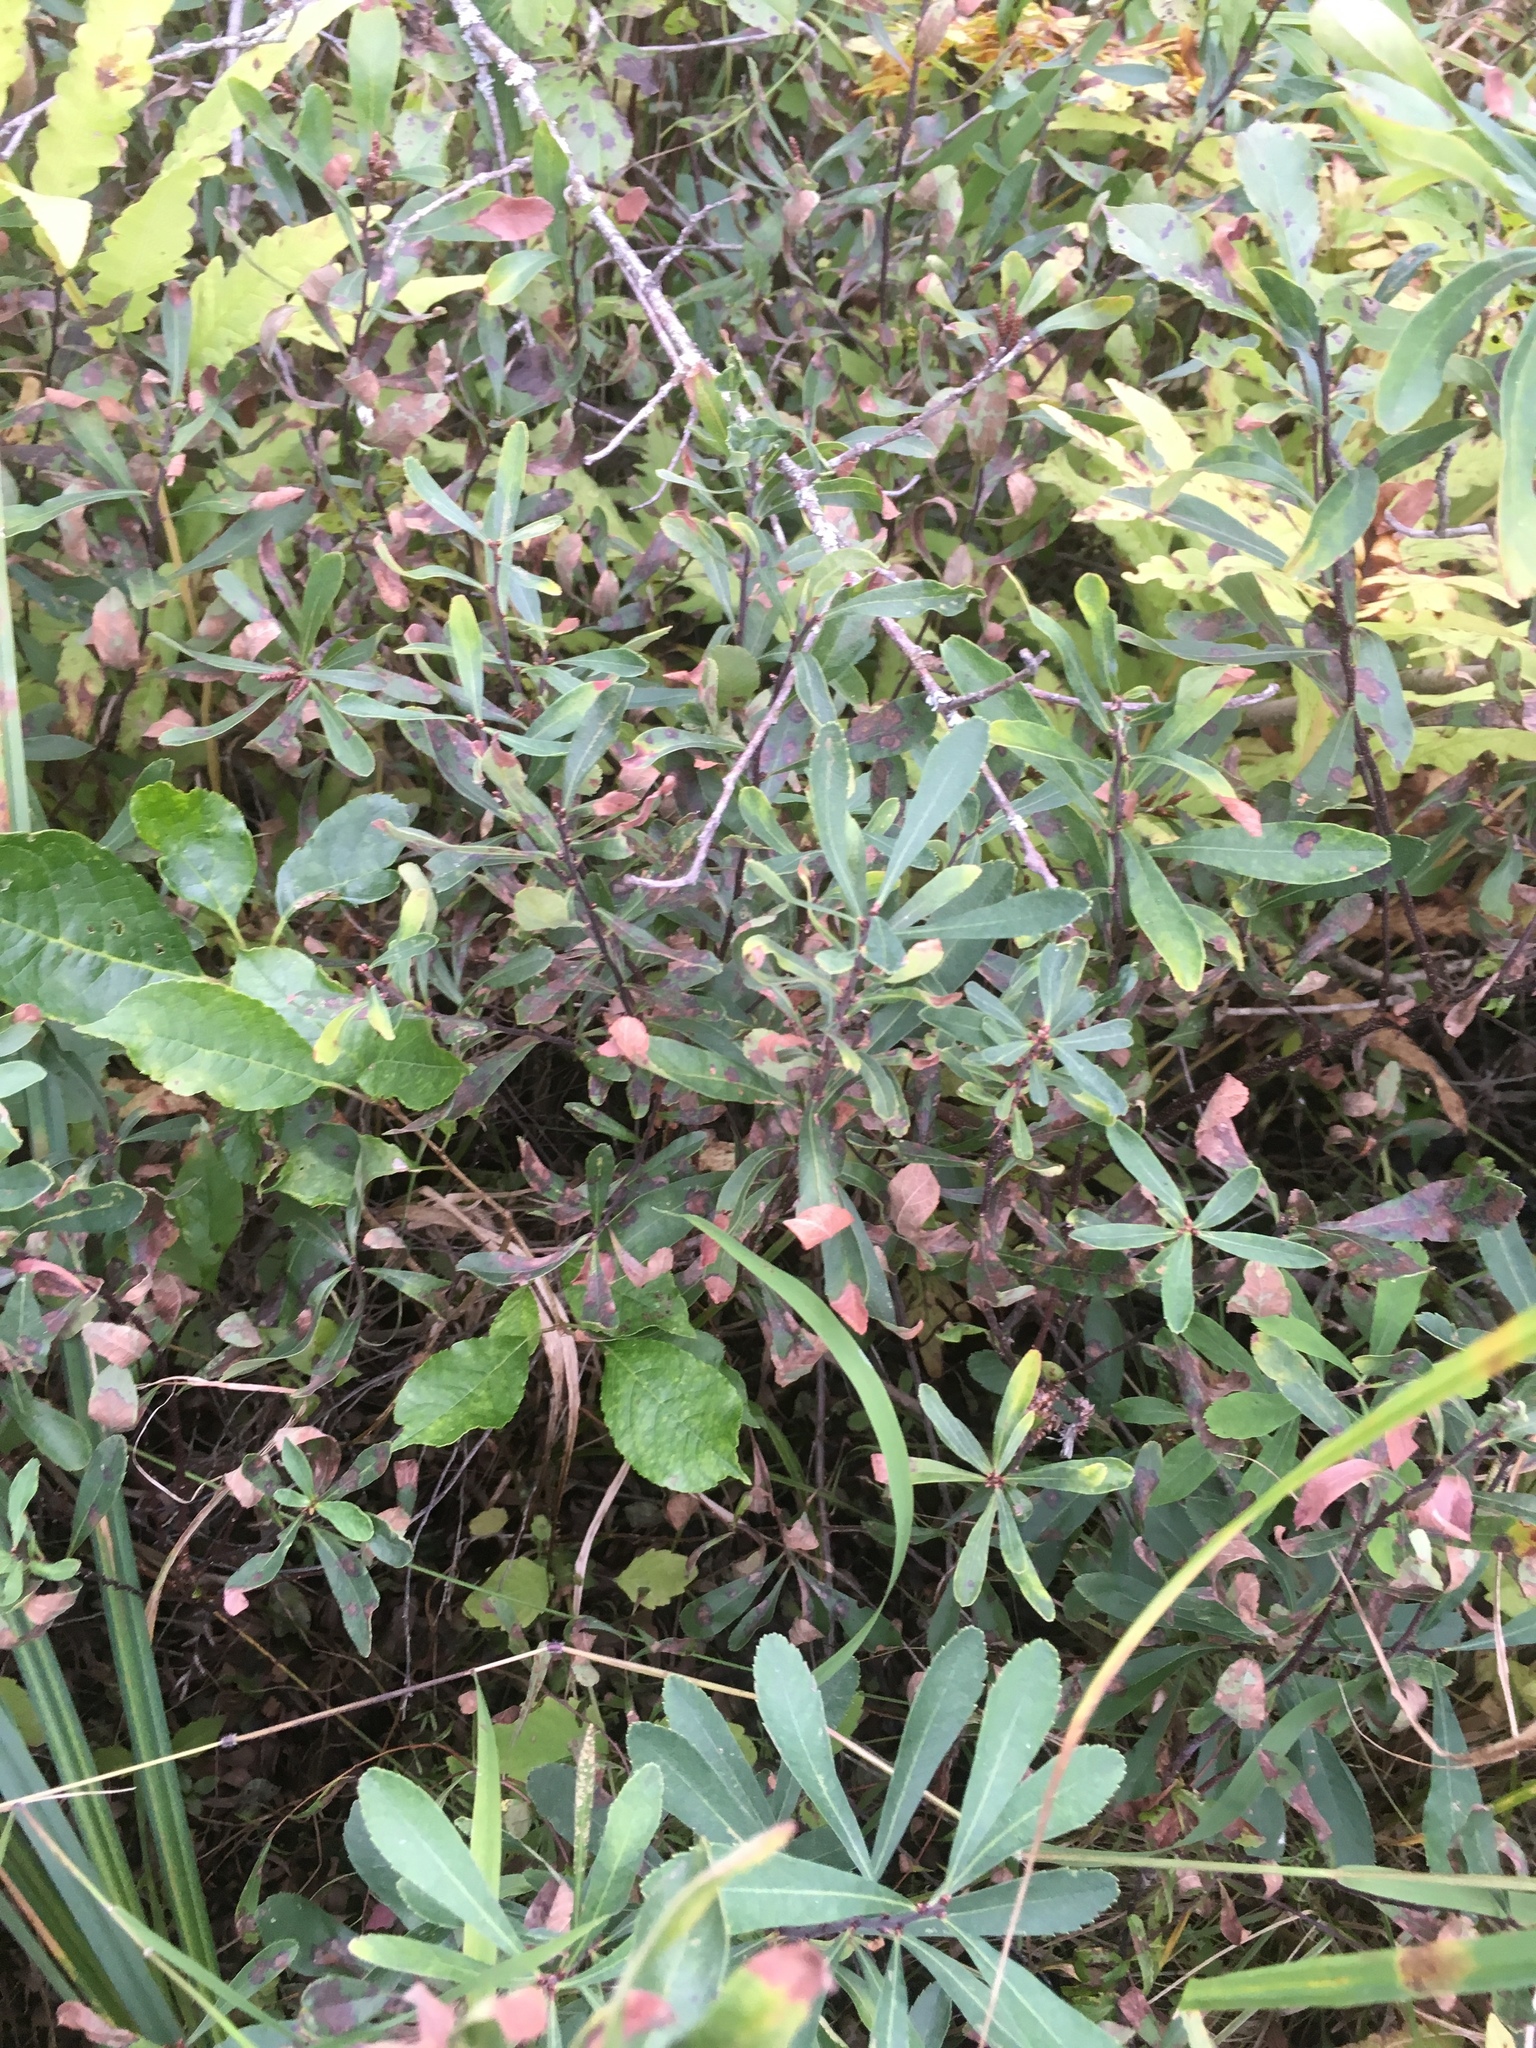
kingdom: Plantae
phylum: Tracheophyta
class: Magnoliopsida
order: Fagales
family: Myricaceae
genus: Myrica
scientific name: Myrica gale
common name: Sweet gale
